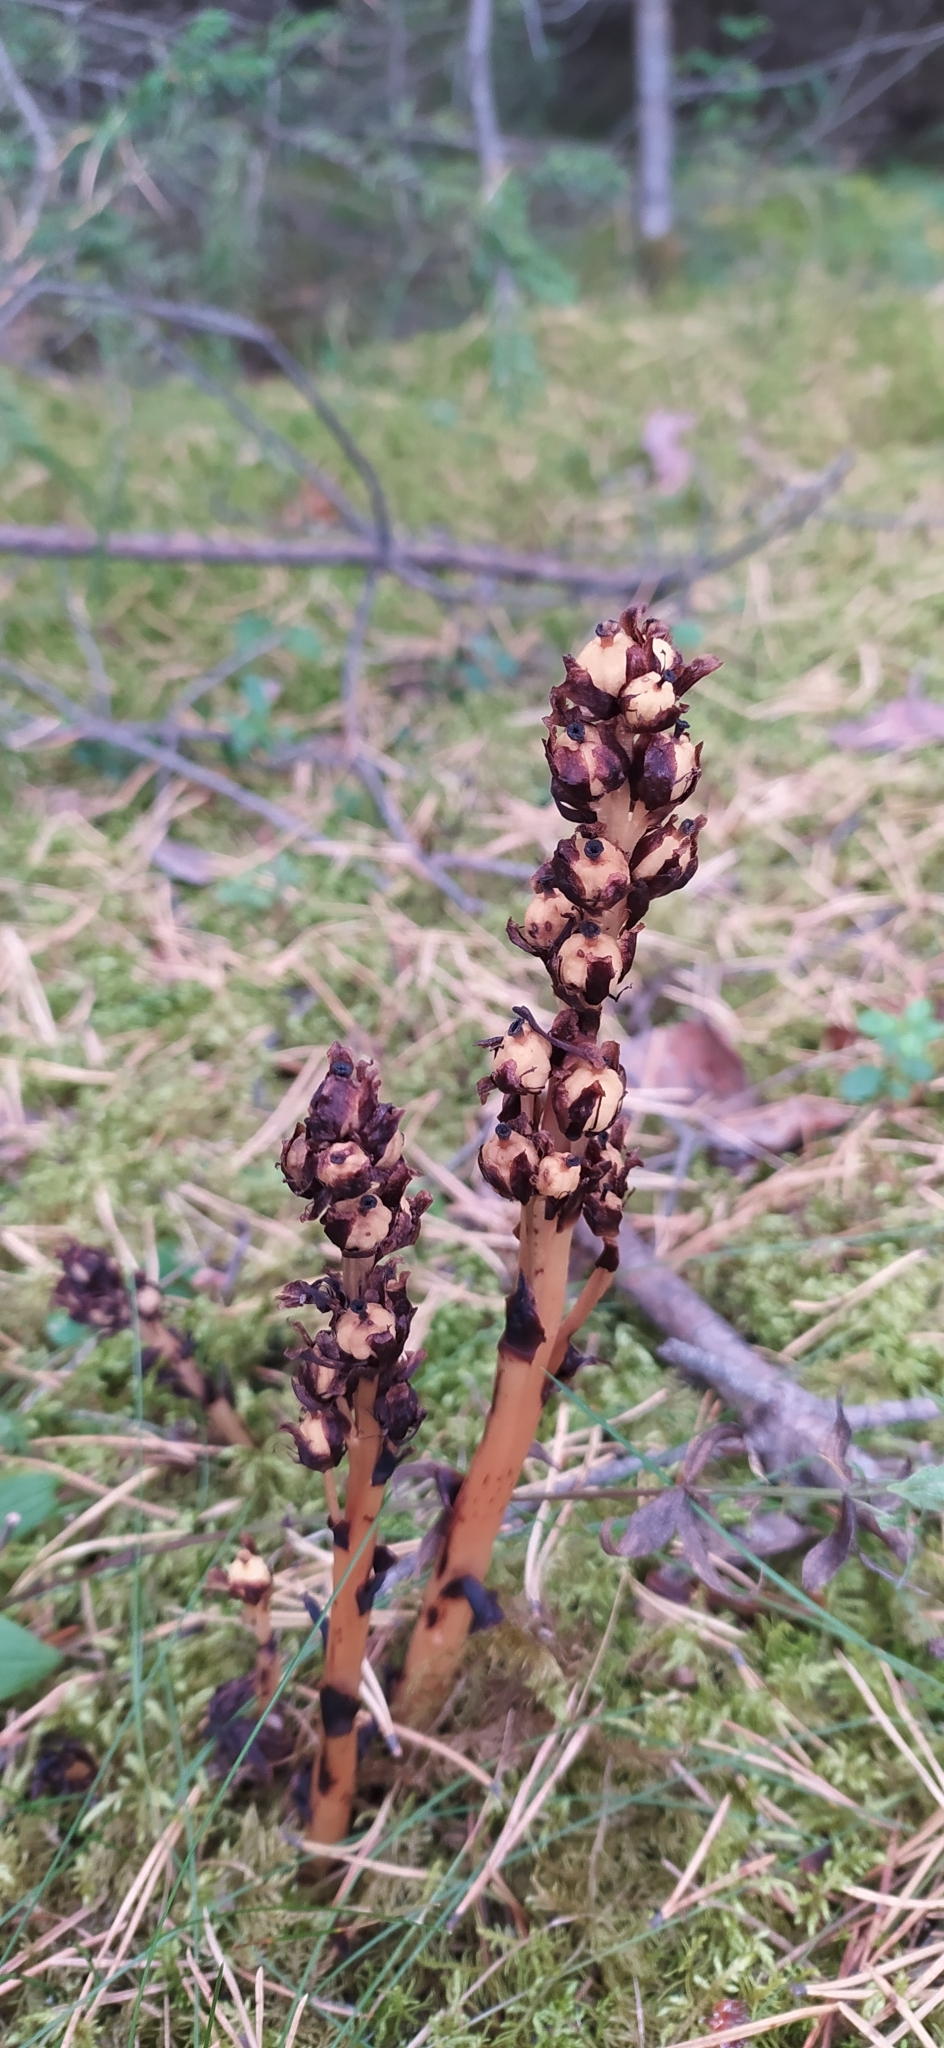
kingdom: Plantae
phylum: Tracheophyta
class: Magnoliopsida
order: Ericales
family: Ericaceae
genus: Hypopitys
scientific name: Hypopitys monotropa
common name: Yellow bird's-nest
